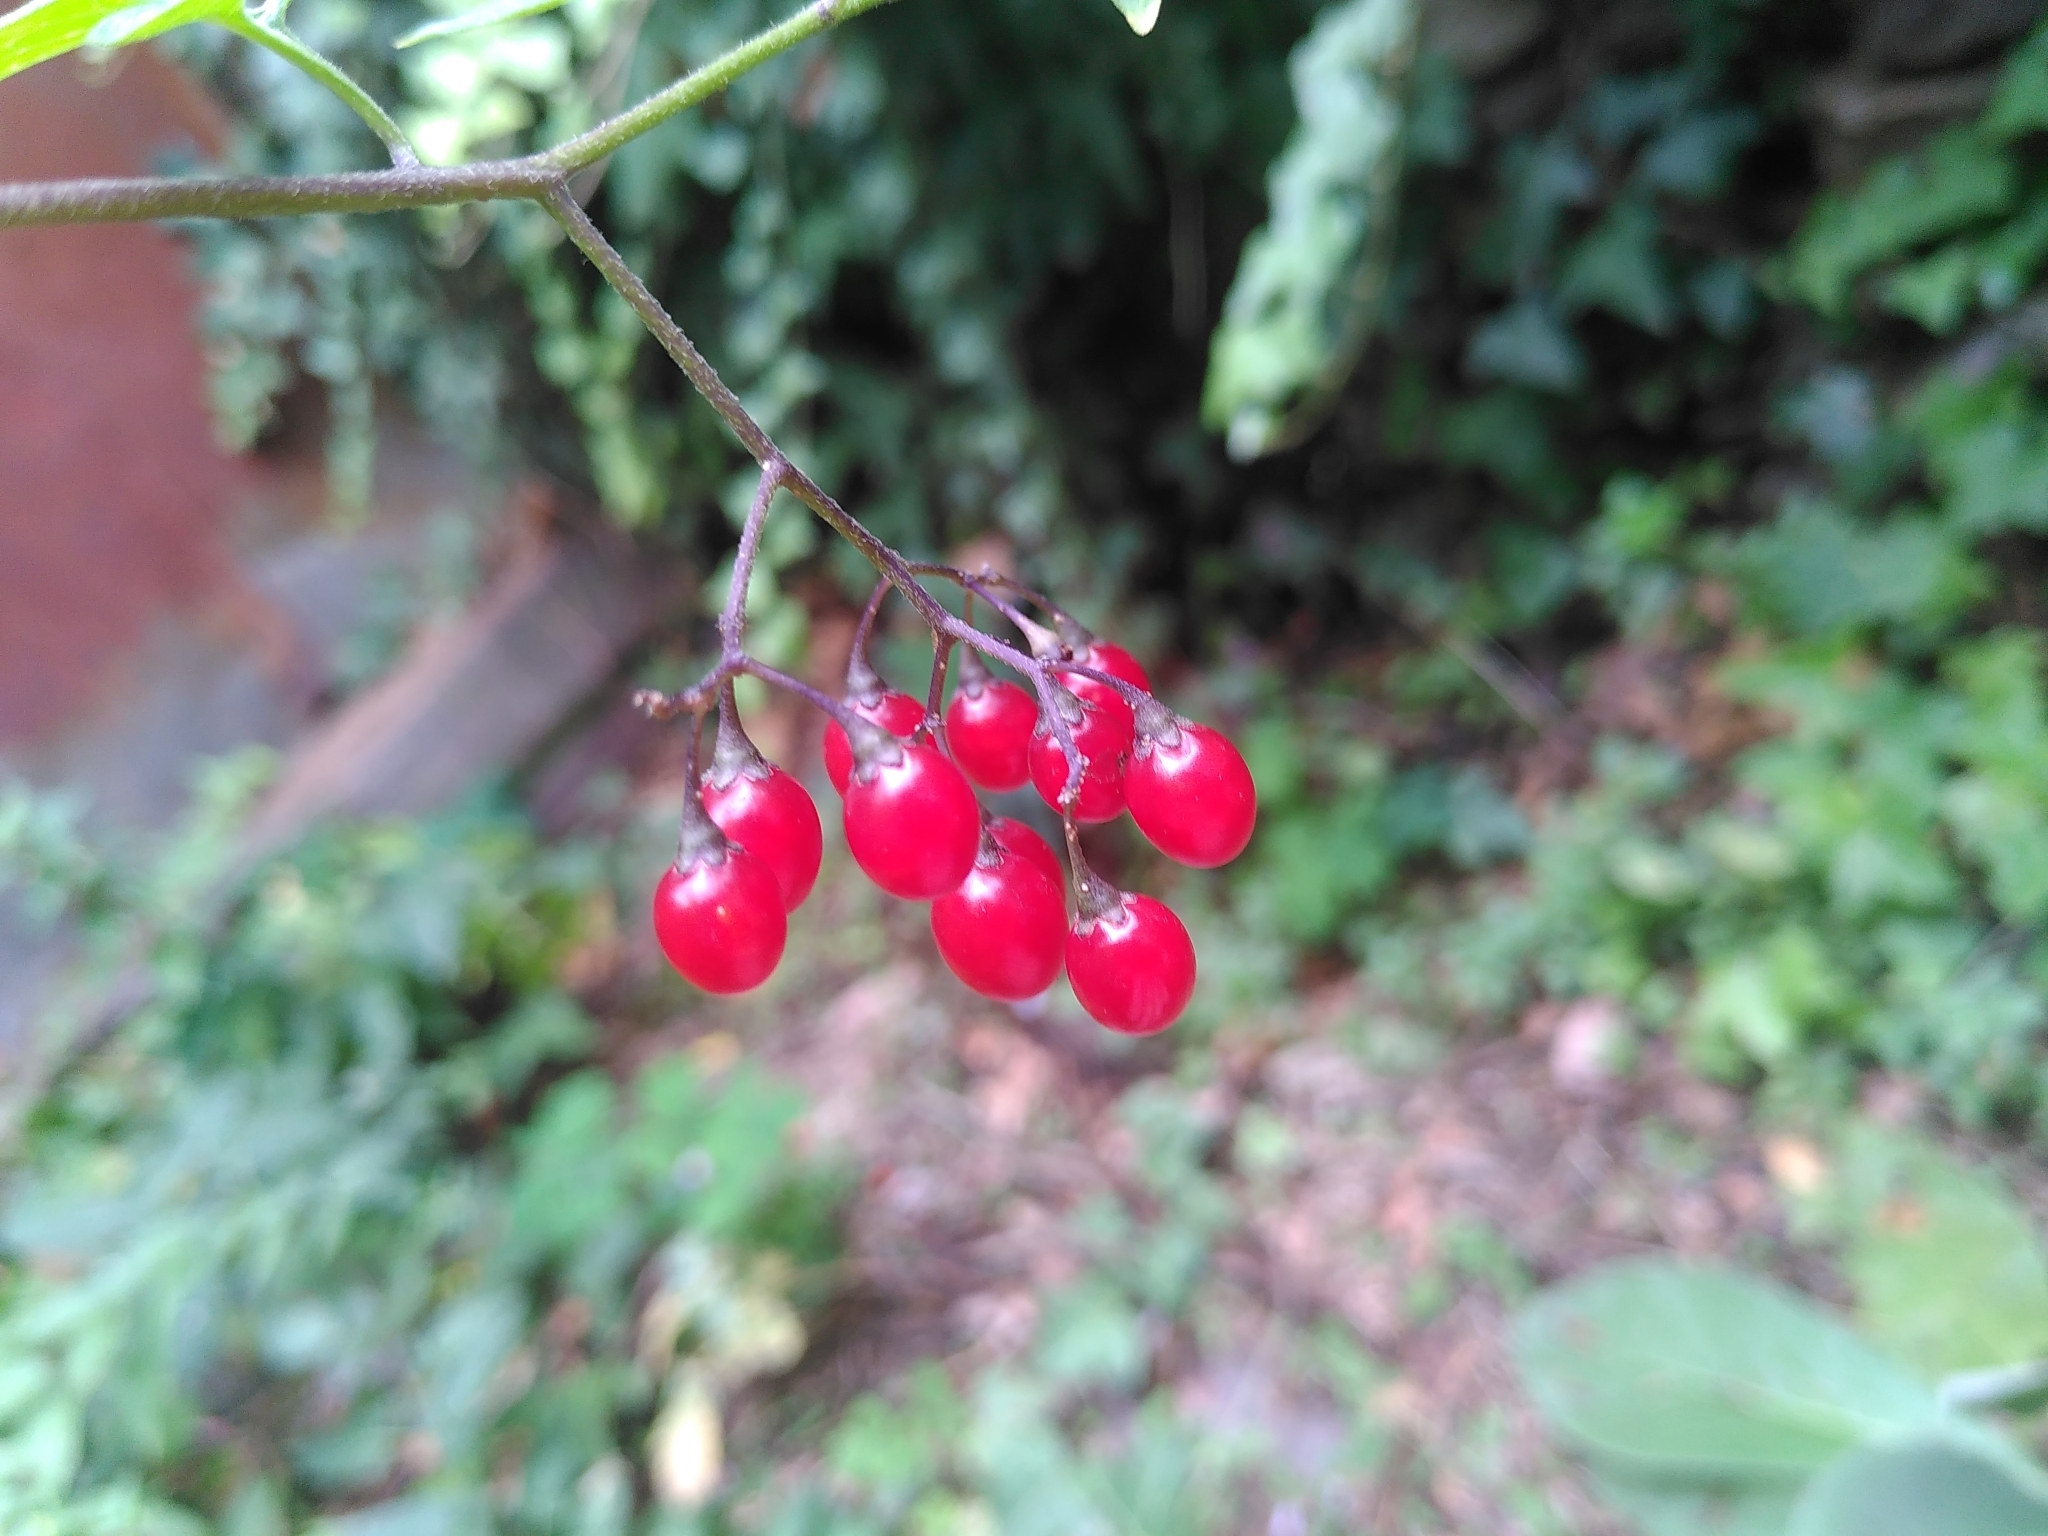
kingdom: Plantae
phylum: Tracheophyta
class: Magnoliopsida
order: Solanales
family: Solanaceae
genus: Solanum
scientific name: Solanum dulcamara
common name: Climbing nightshade
